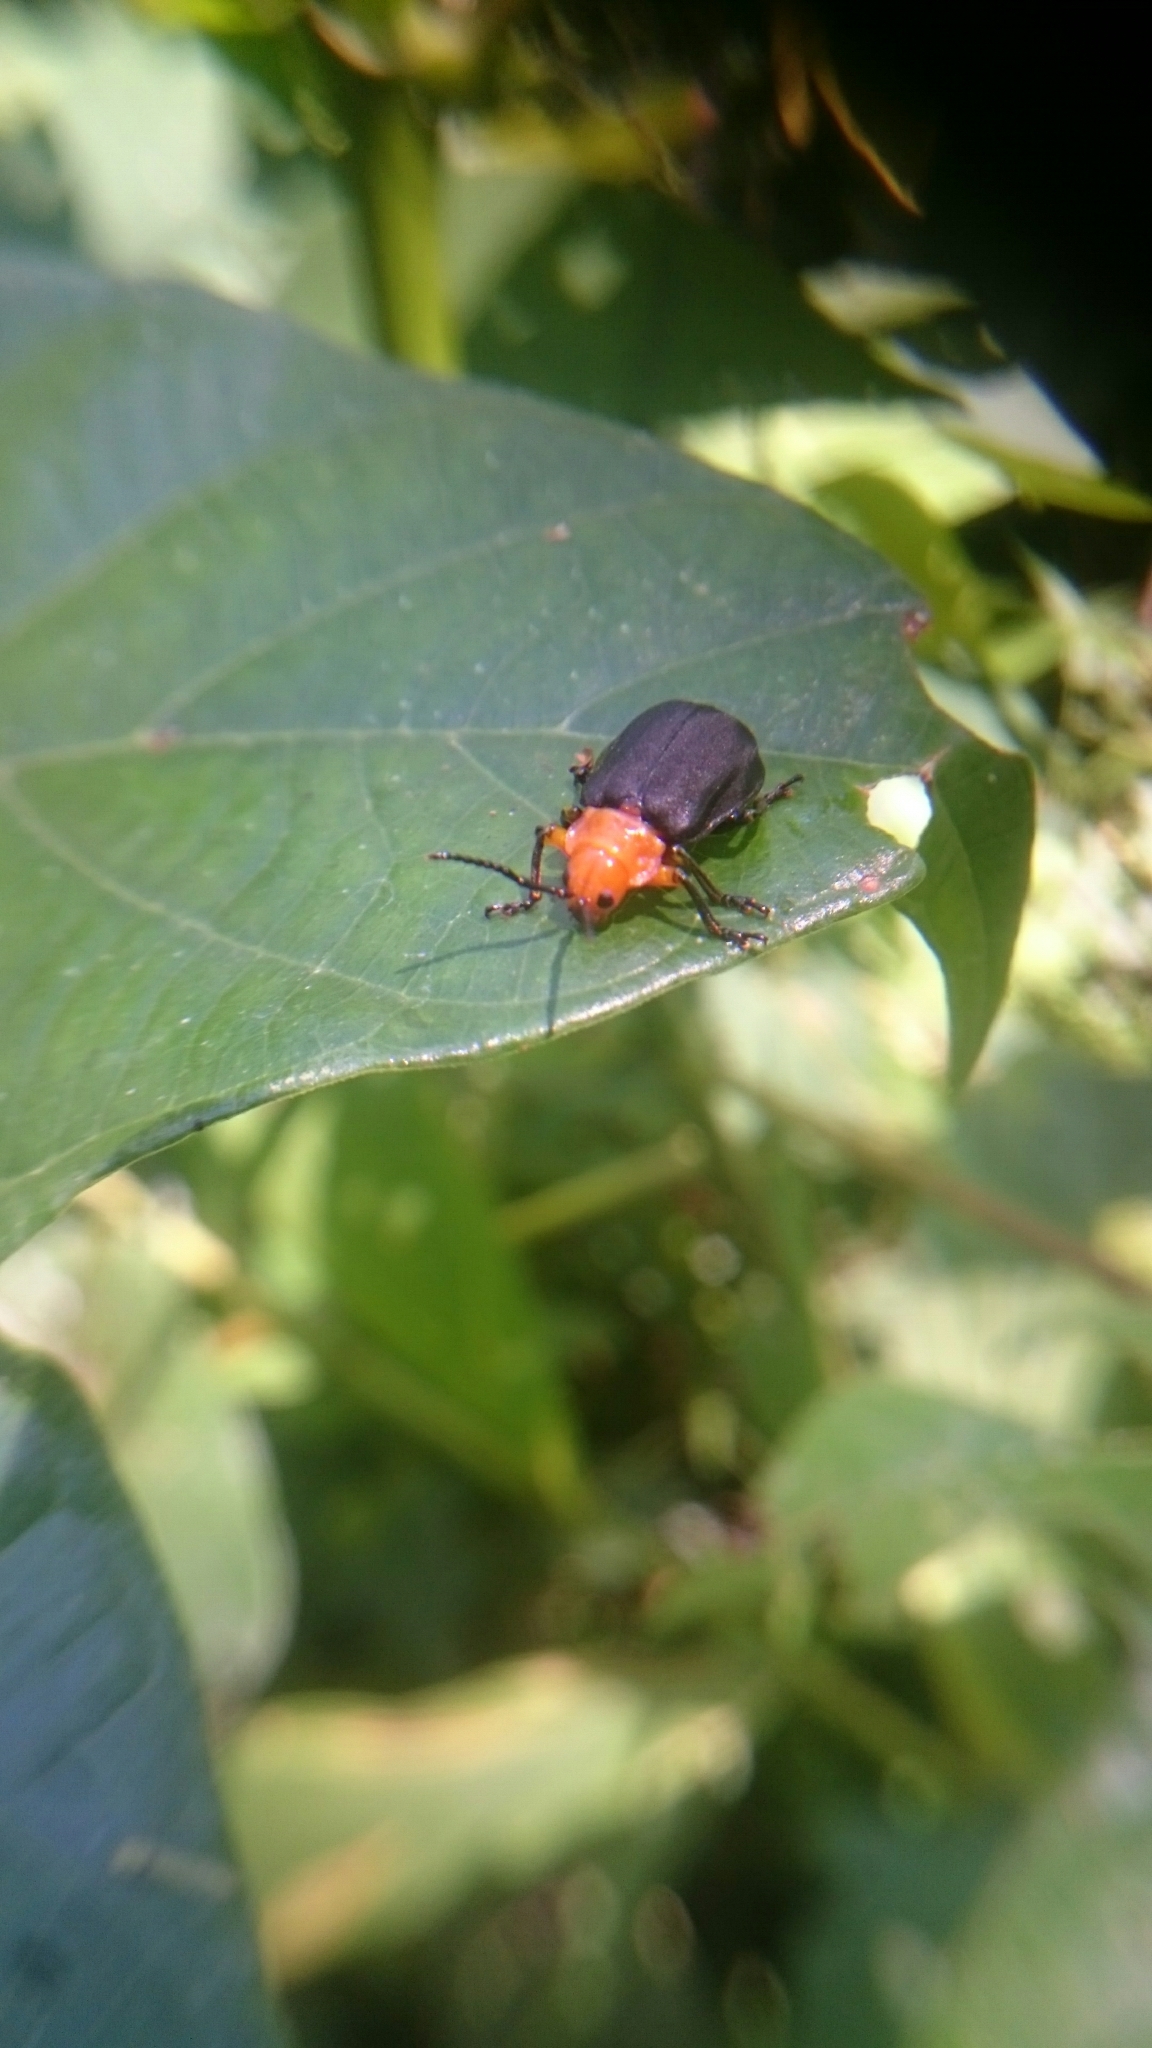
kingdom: Animalia
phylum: Arthropoda
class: Insecta
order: Coleoptera
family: Chrysomelidae
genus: Coelomera
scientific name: Coelomera cajennensis
